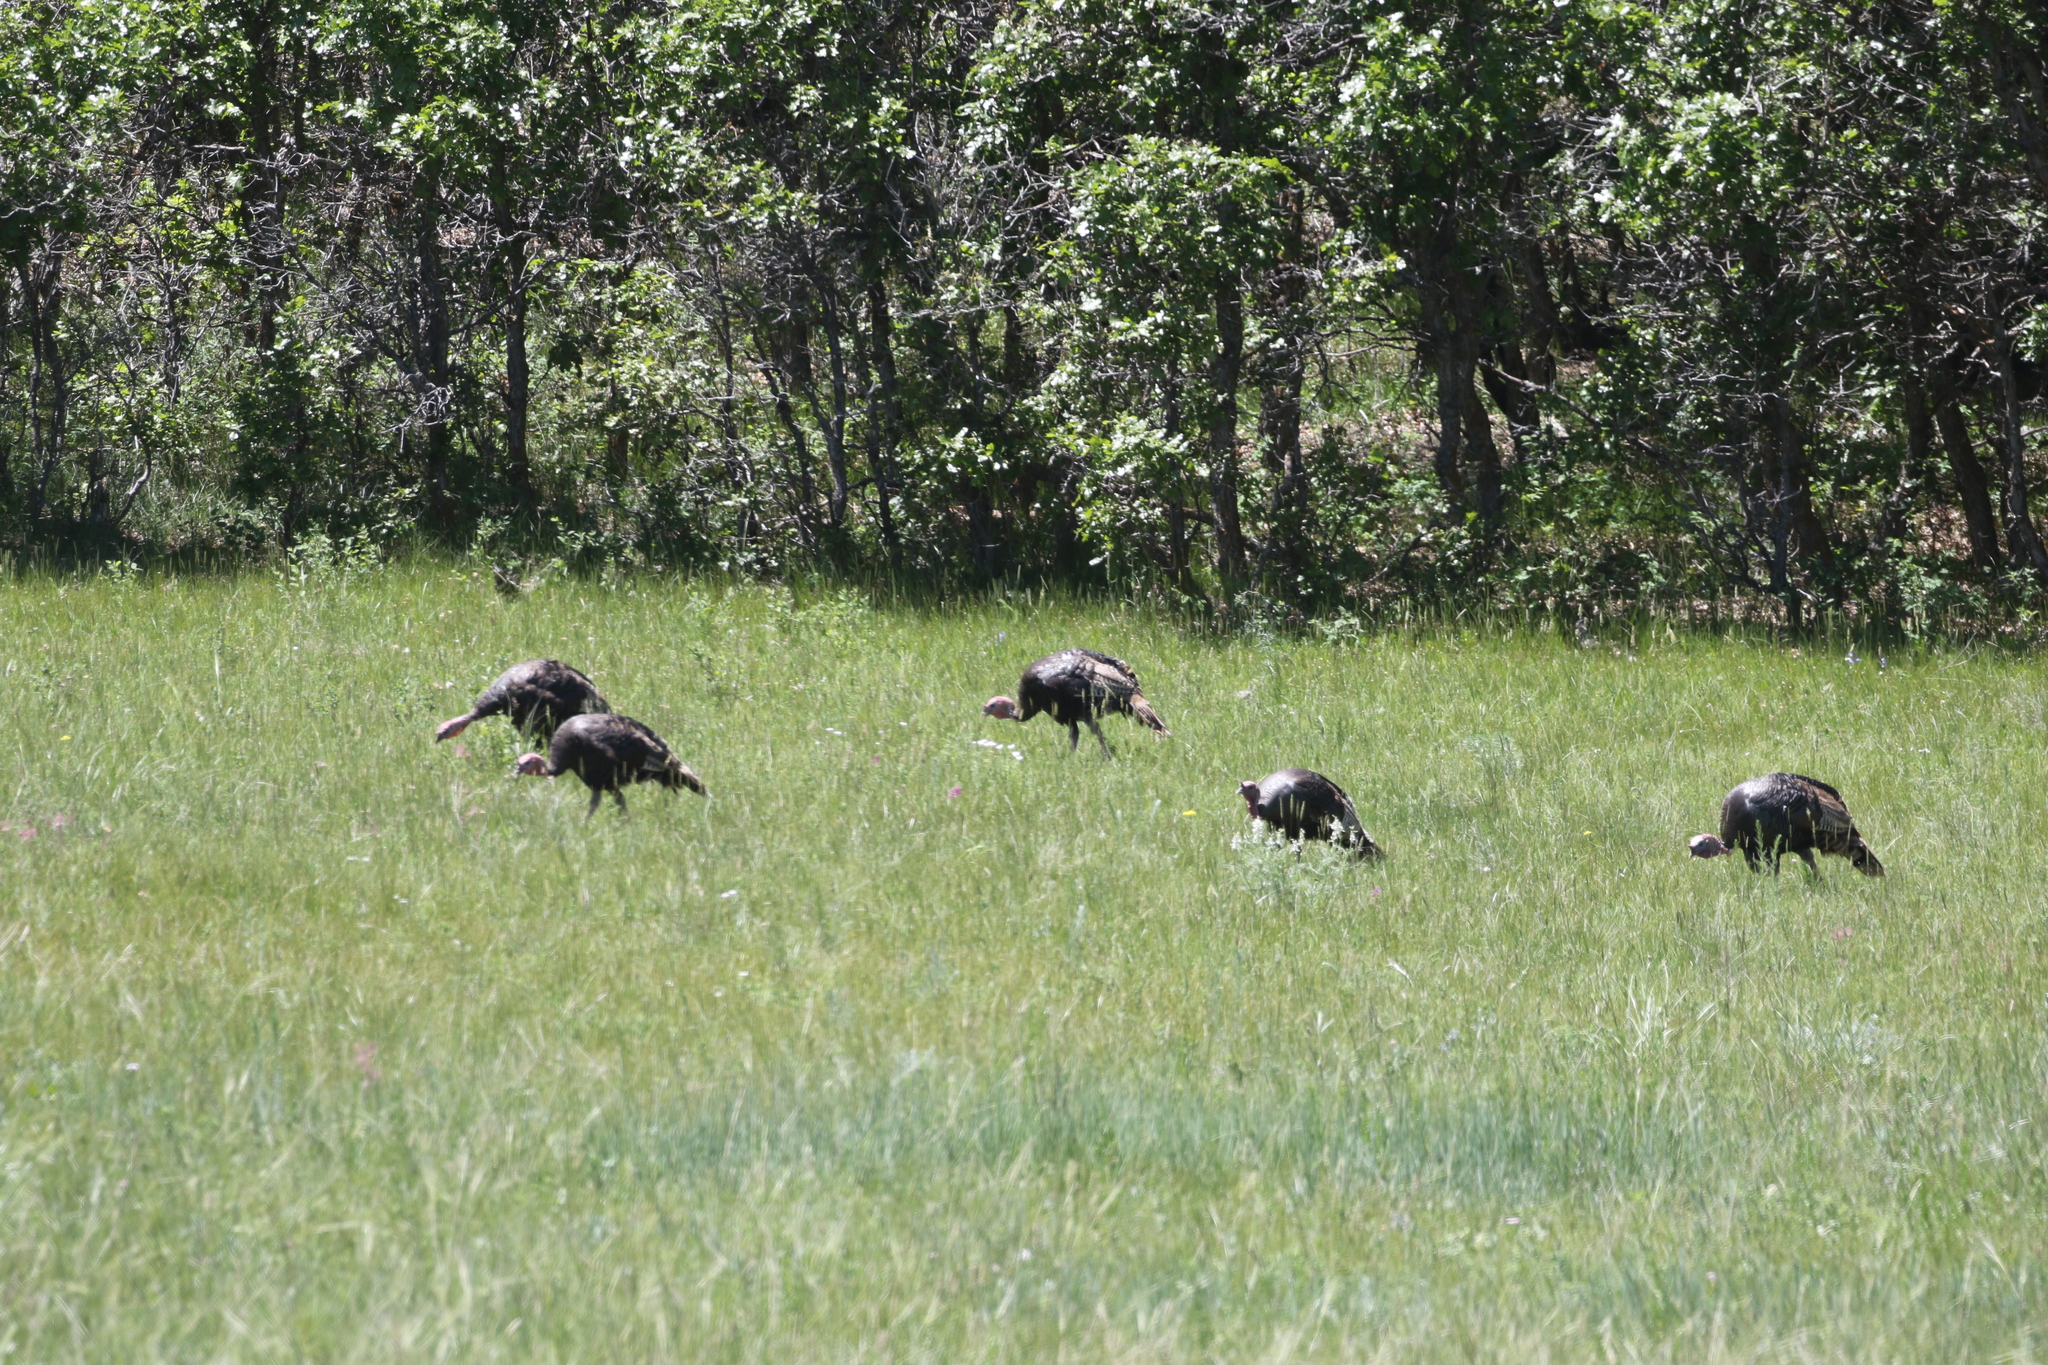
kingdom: Animalia
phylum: Chordata
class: Aves
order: Galliformes
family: Phasianidae
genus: Meleagris
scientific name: Meleagris gallopavo
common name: Wild turkey
